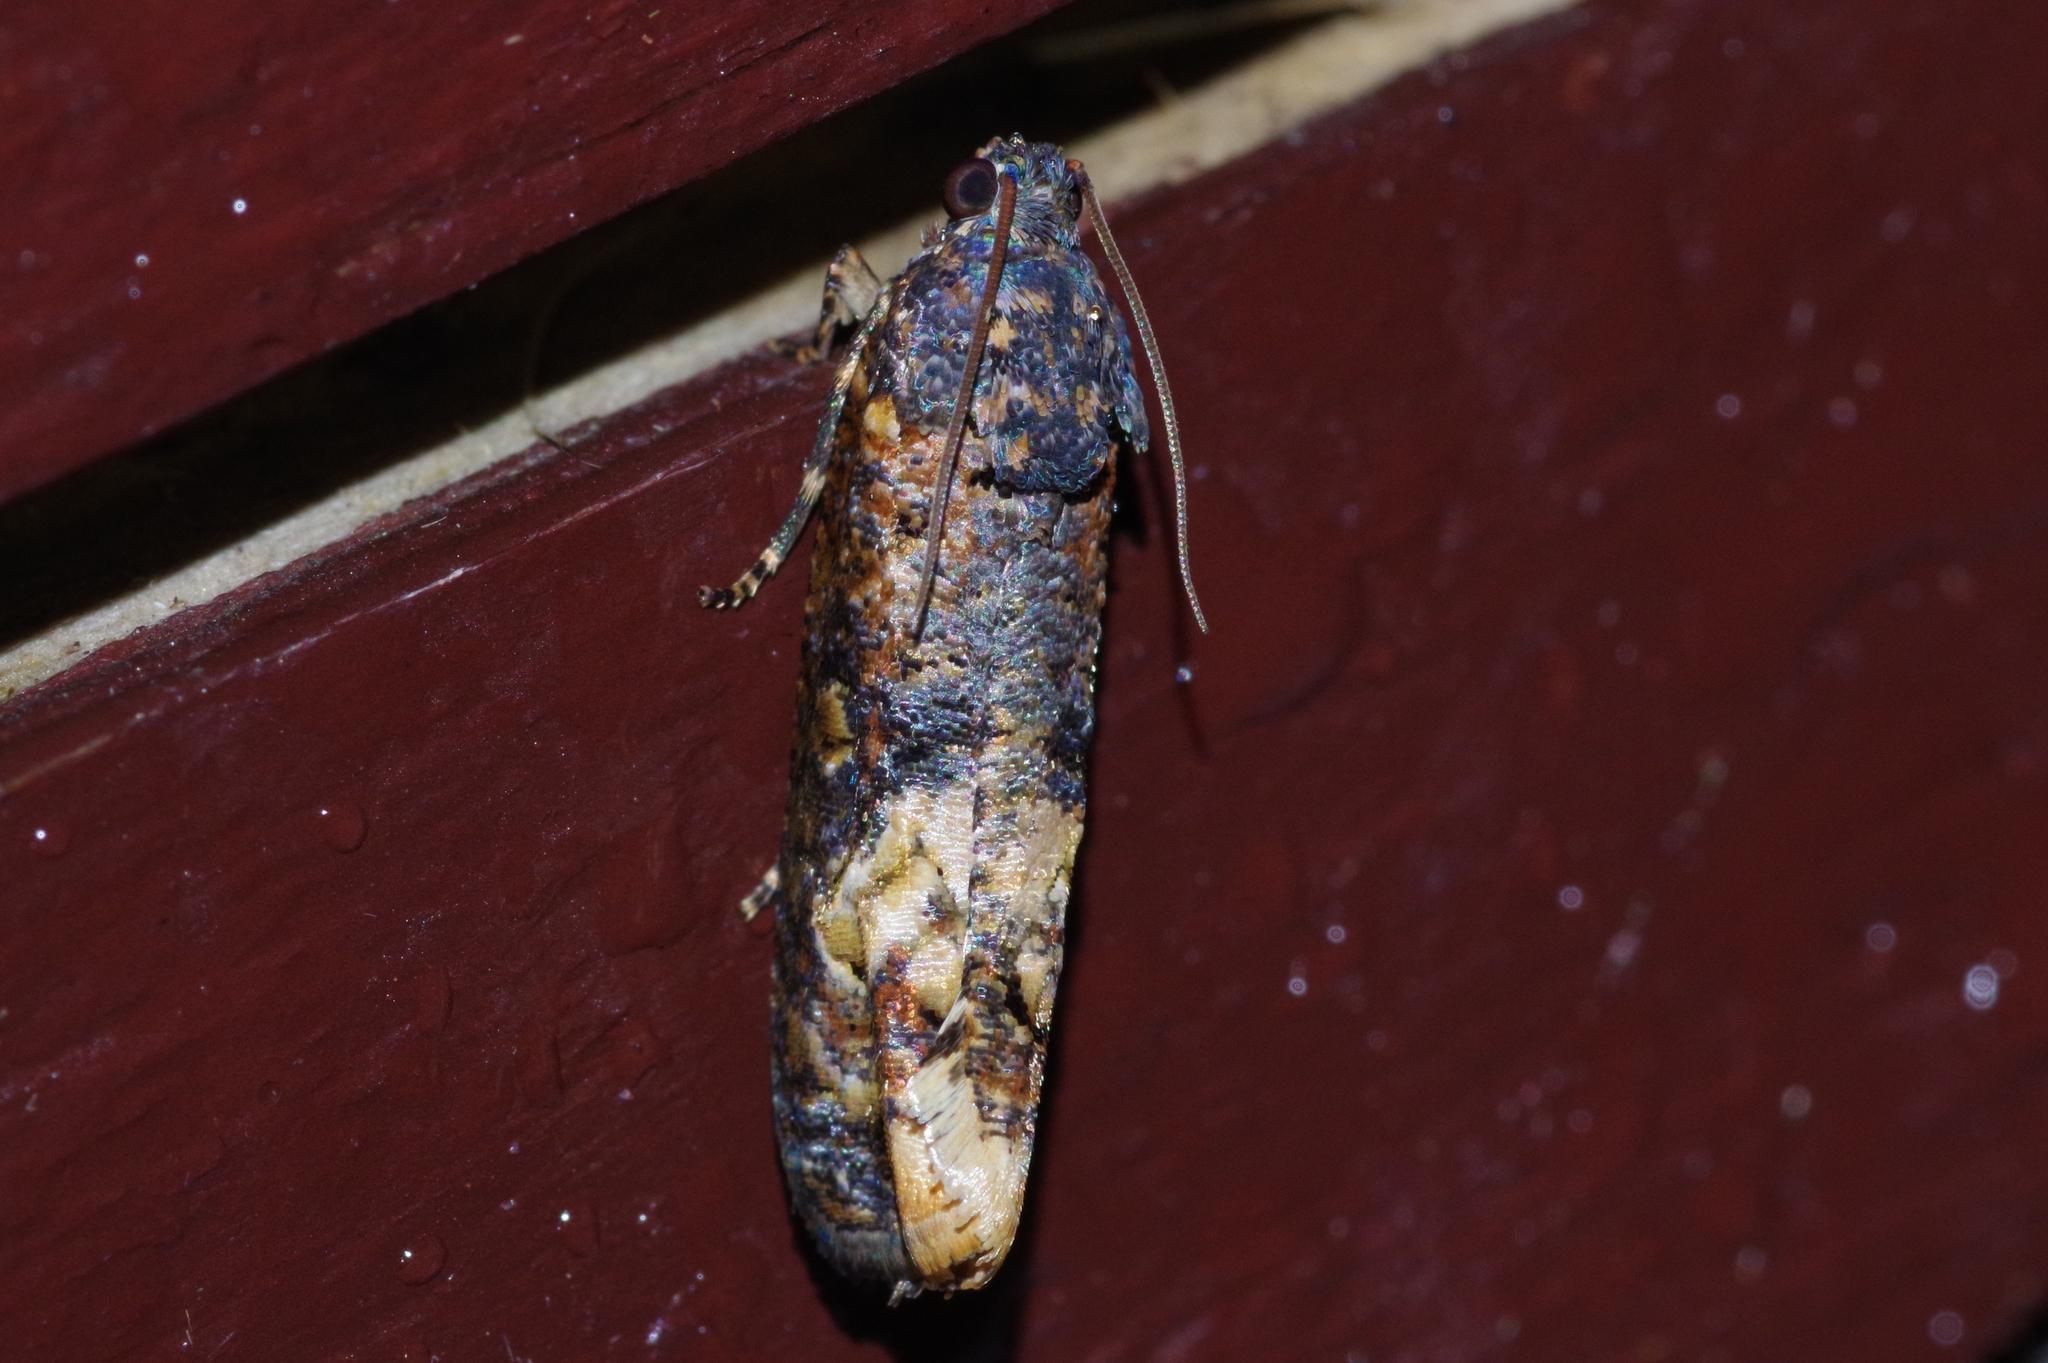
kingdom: Animalia
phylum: Arthropoda
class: Insecta
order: Lepidoptera
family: Tortricidae
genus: Arcesis
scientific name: Arcesis threnodes
